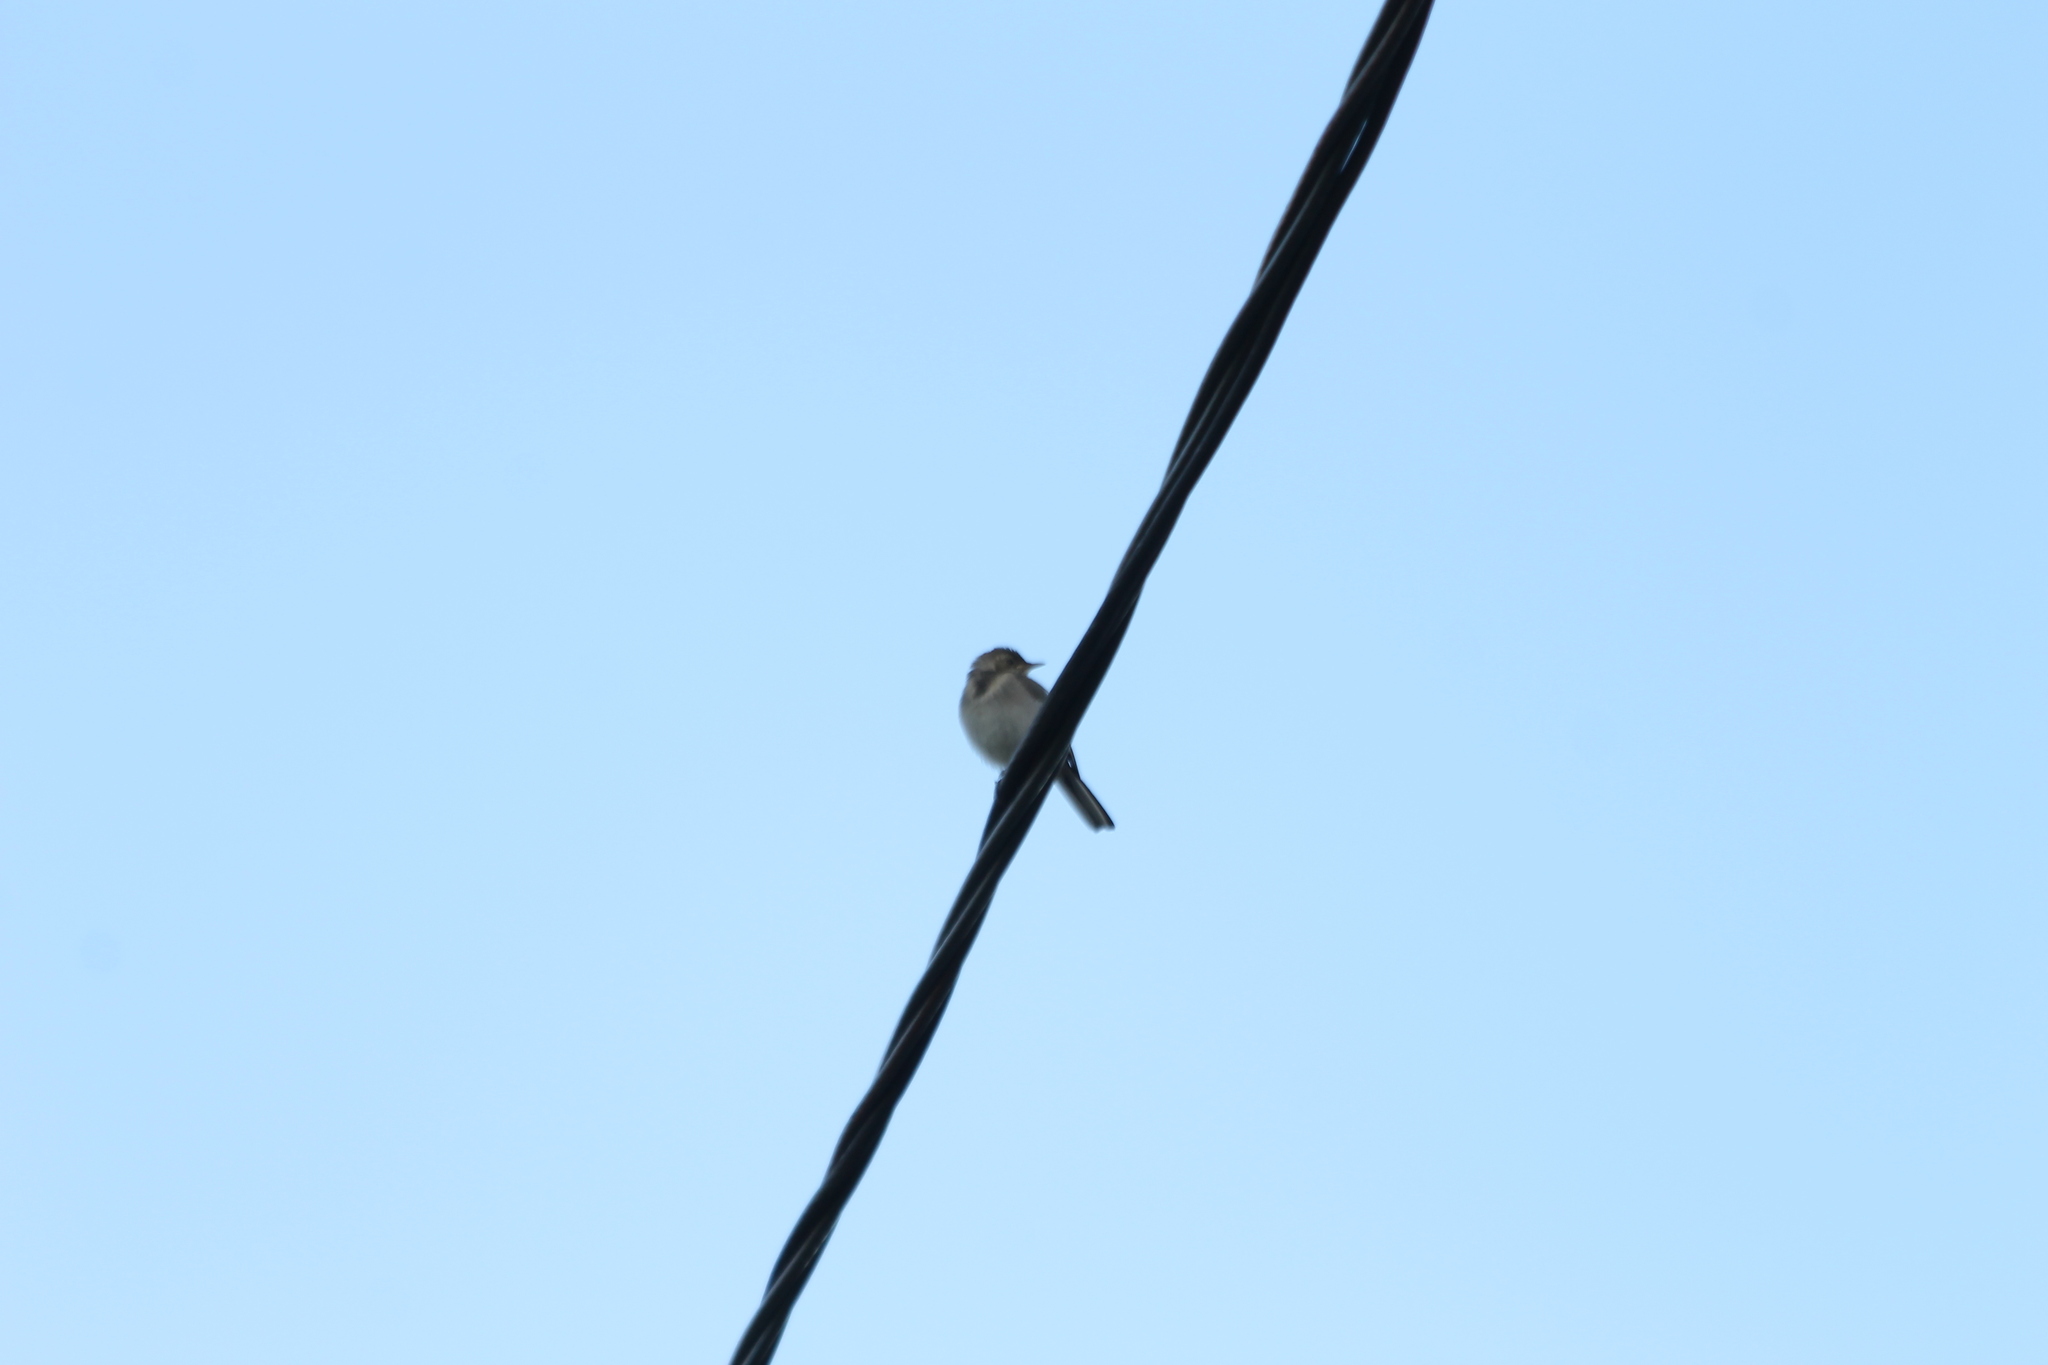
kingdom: Animalia
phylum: Chordata
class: Aves
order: Passeriformes
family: Motacillidae
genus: Motacilla
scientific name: Motacilla alba
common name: White wagtail
